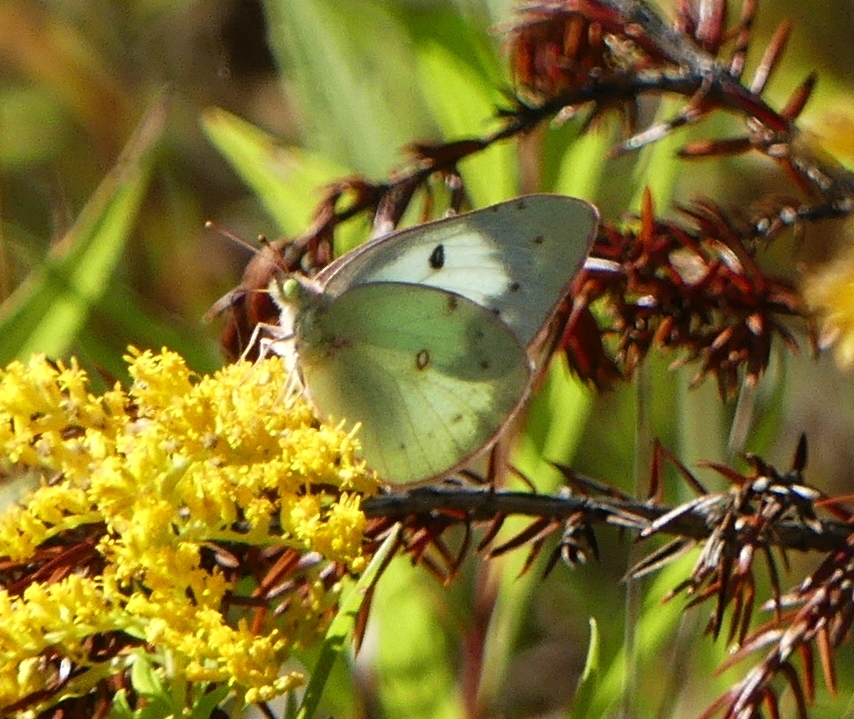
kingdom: Animalia
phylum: Arthropoda
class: Insecta
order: Lepidoptera
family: Pieridae
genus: Colias
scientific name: Colias philodice
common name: Clouded sulphur
